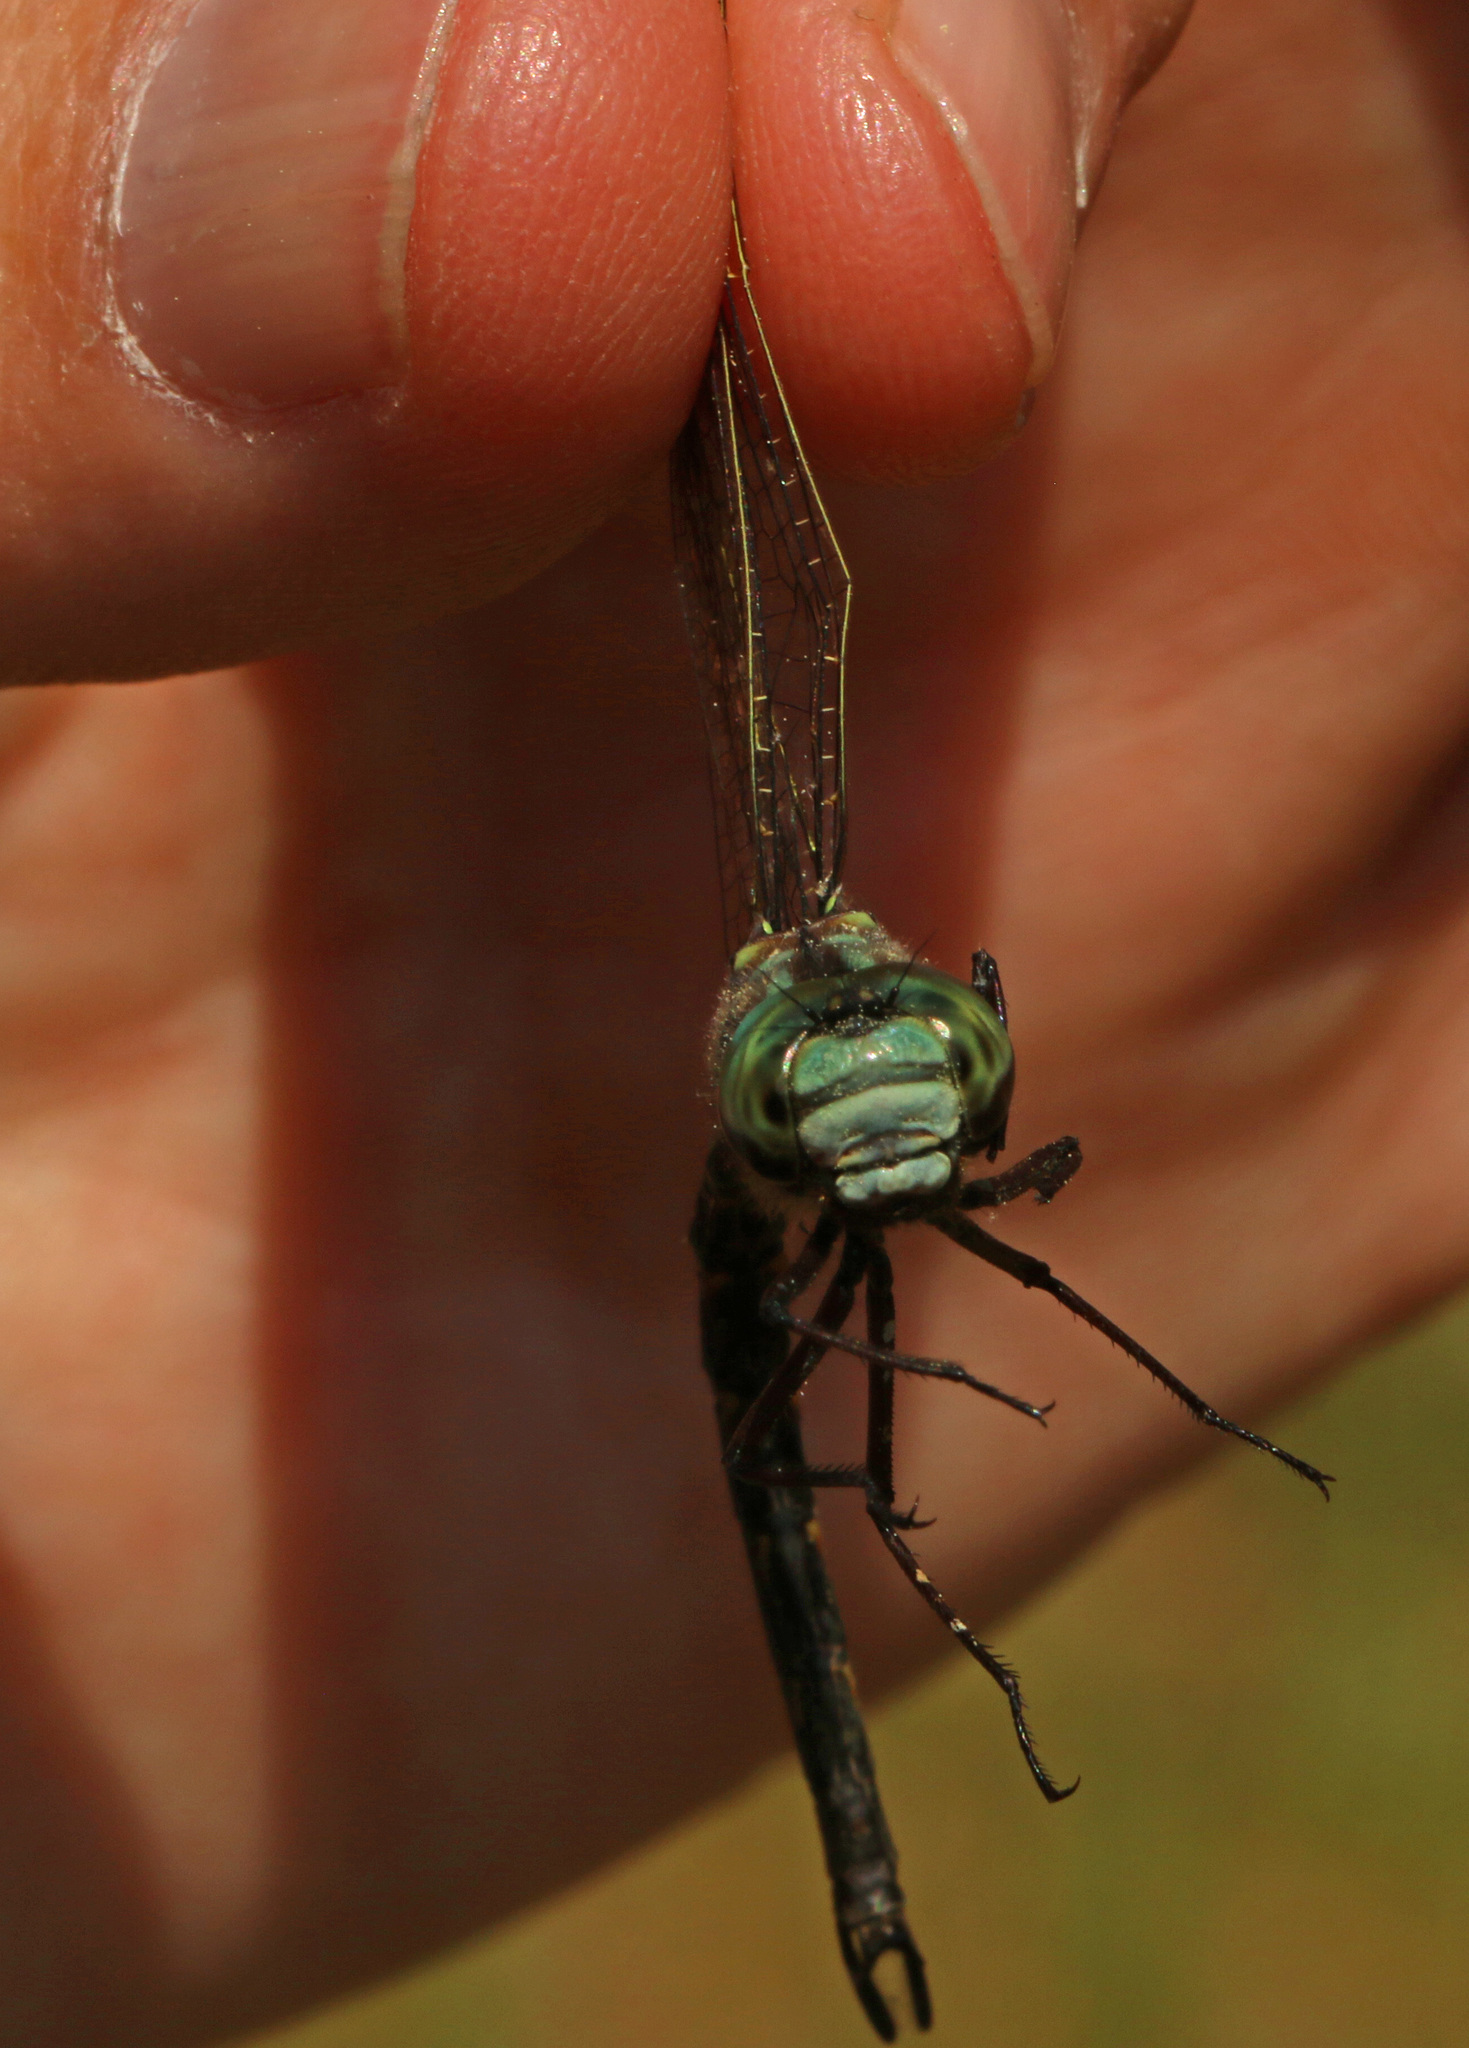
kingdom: Animalia
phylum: Arthropoda
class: Insecta
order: Odonata
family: Aeshnidae
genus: Gomphaeschna
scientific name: Gomphaeschna furcillata
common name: Harlequin darner
